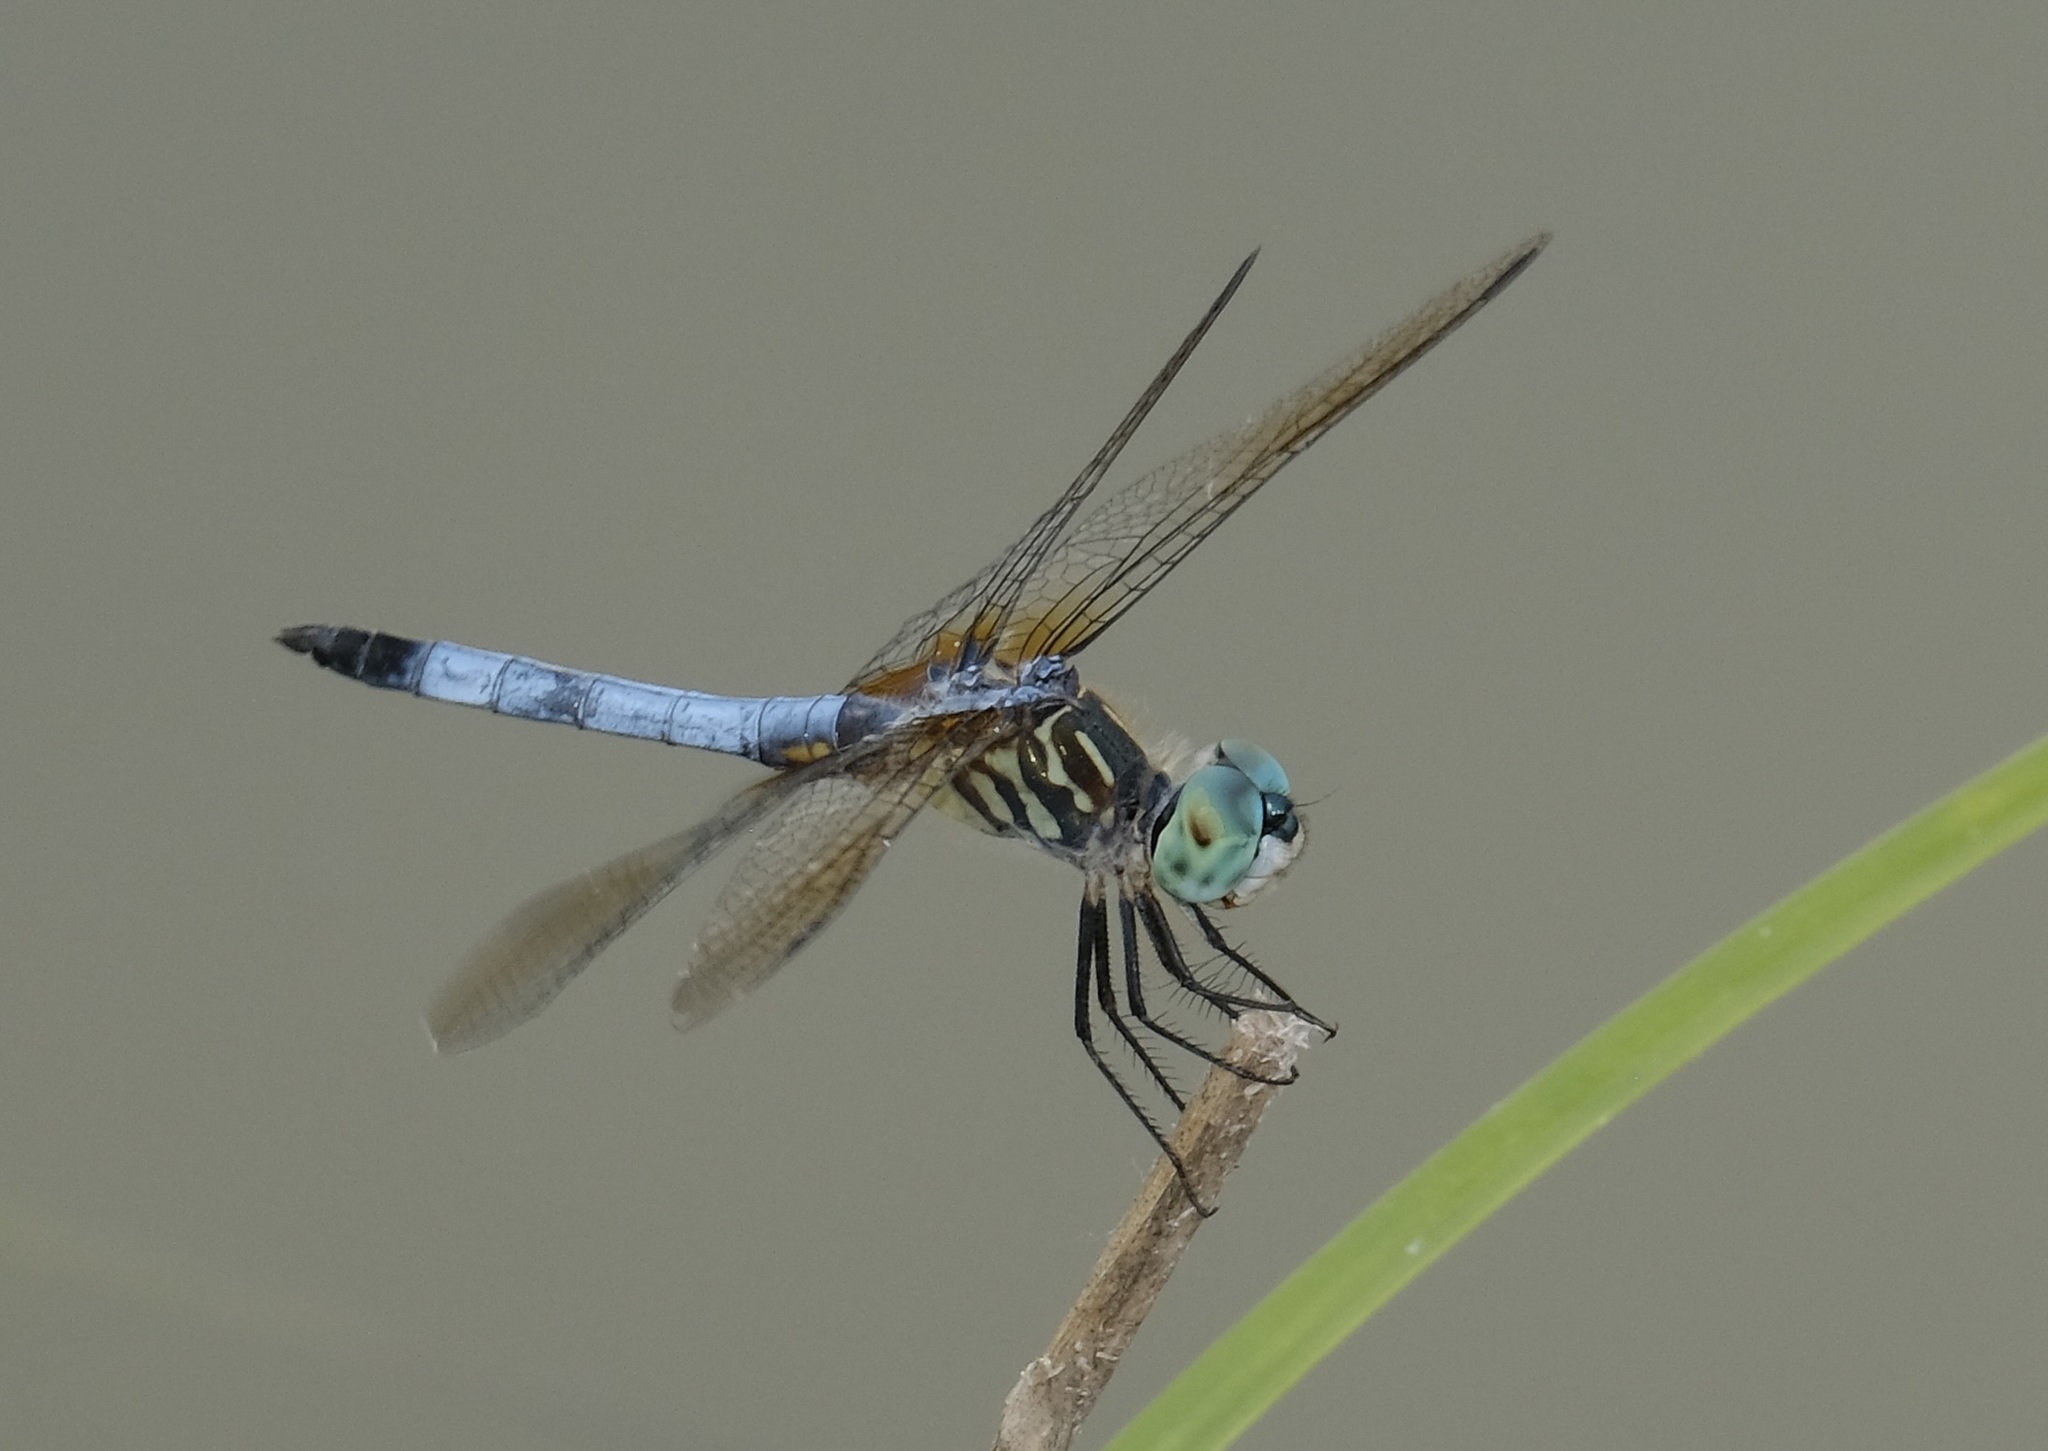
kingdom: Animalia
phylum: Arthropoda
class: Insecta
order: Odonata
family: Libellulidae
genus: Pachydiplax
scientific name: Pachydiplax longipennis
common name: Blue dasher
